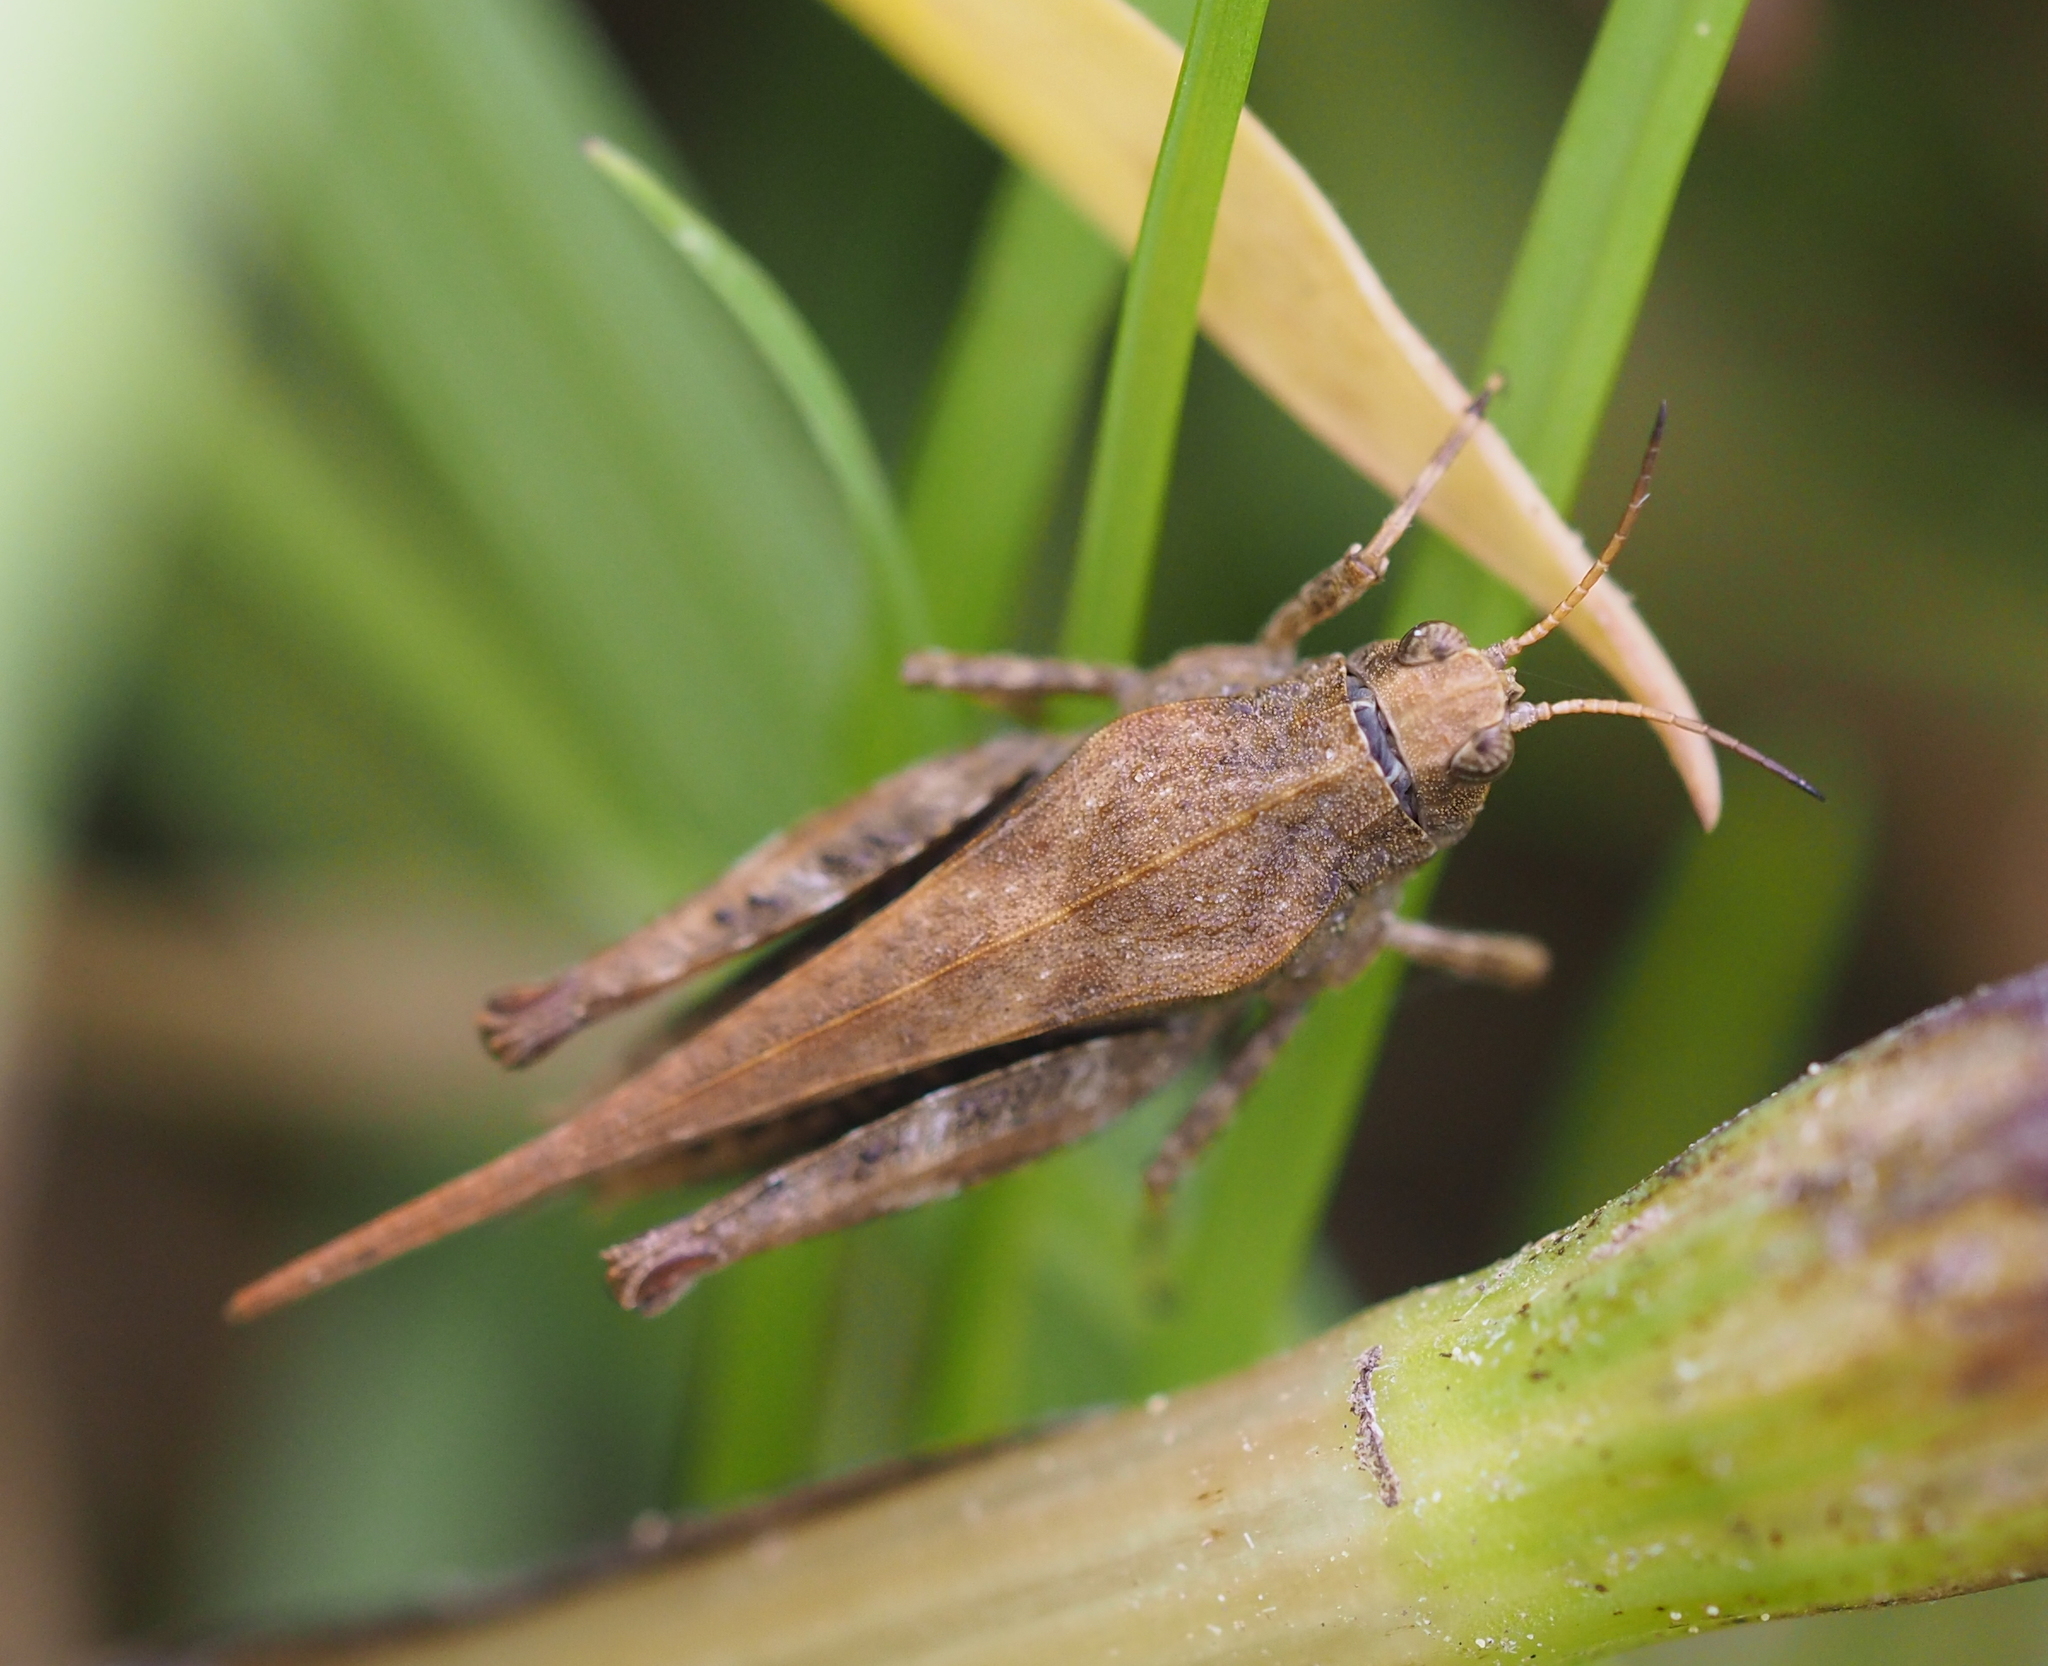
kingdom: Animalia
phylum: Arthropoda
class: Insecta
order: Orthoptera
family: Tetrigidae
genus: Tetrix
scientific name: Tetrix subulata
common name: Slender ground-hopper
